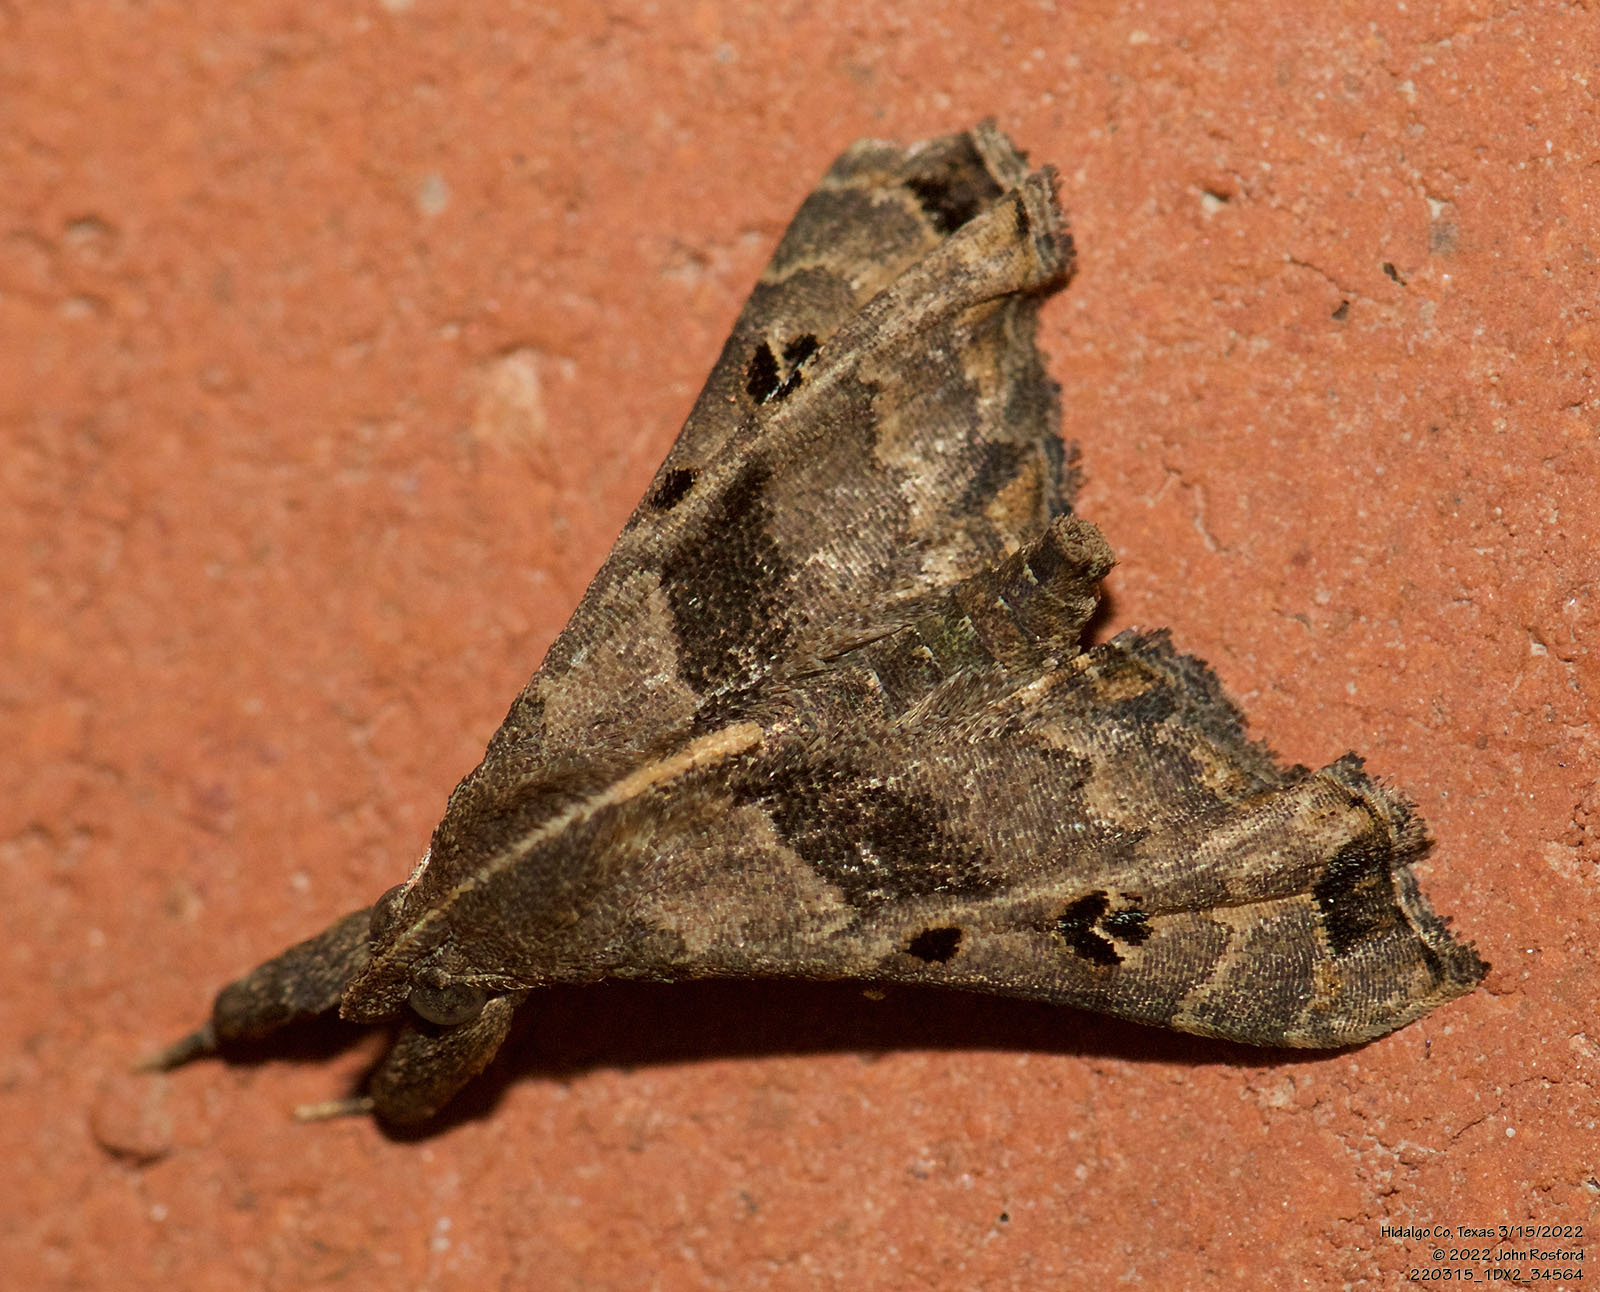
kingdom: Animalia
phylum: Arthropoda
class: Insecta
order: Lepidoptera
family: Erebidae
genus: Palthis
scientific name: Palthis asopialis
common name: Faint-spotted palthis moth
